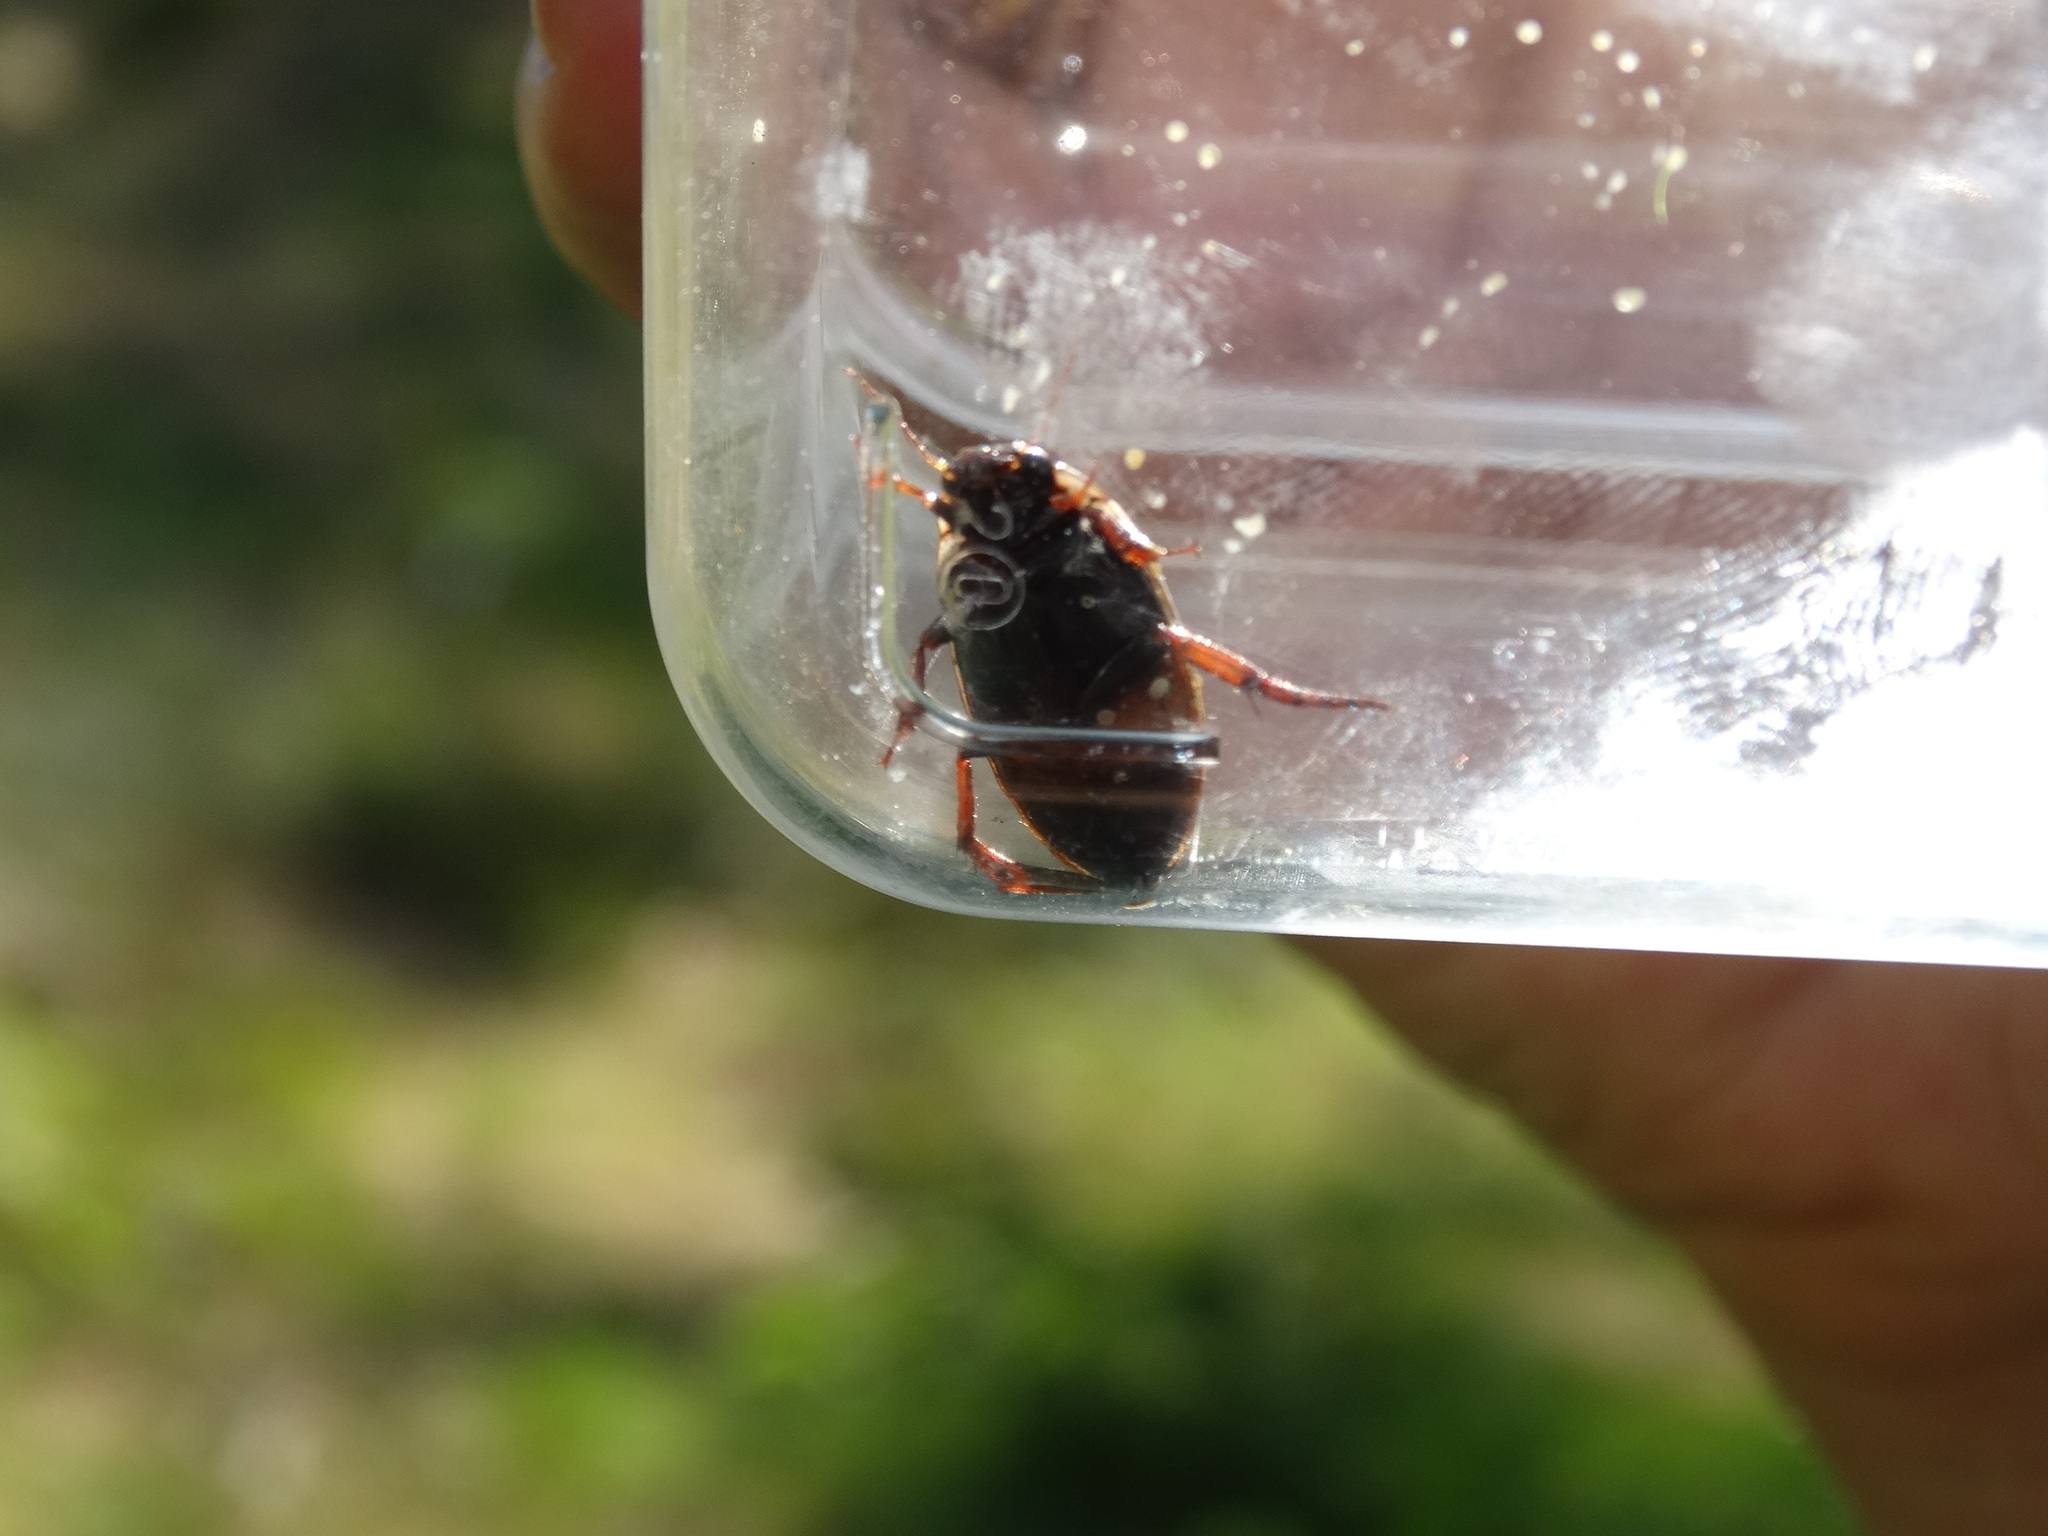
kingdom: Animalia
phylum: Arthropoda
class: Insecta
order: Coleoptera
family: Dytiscidae
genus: Colymbetes
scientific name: Colymbetes fuscus
